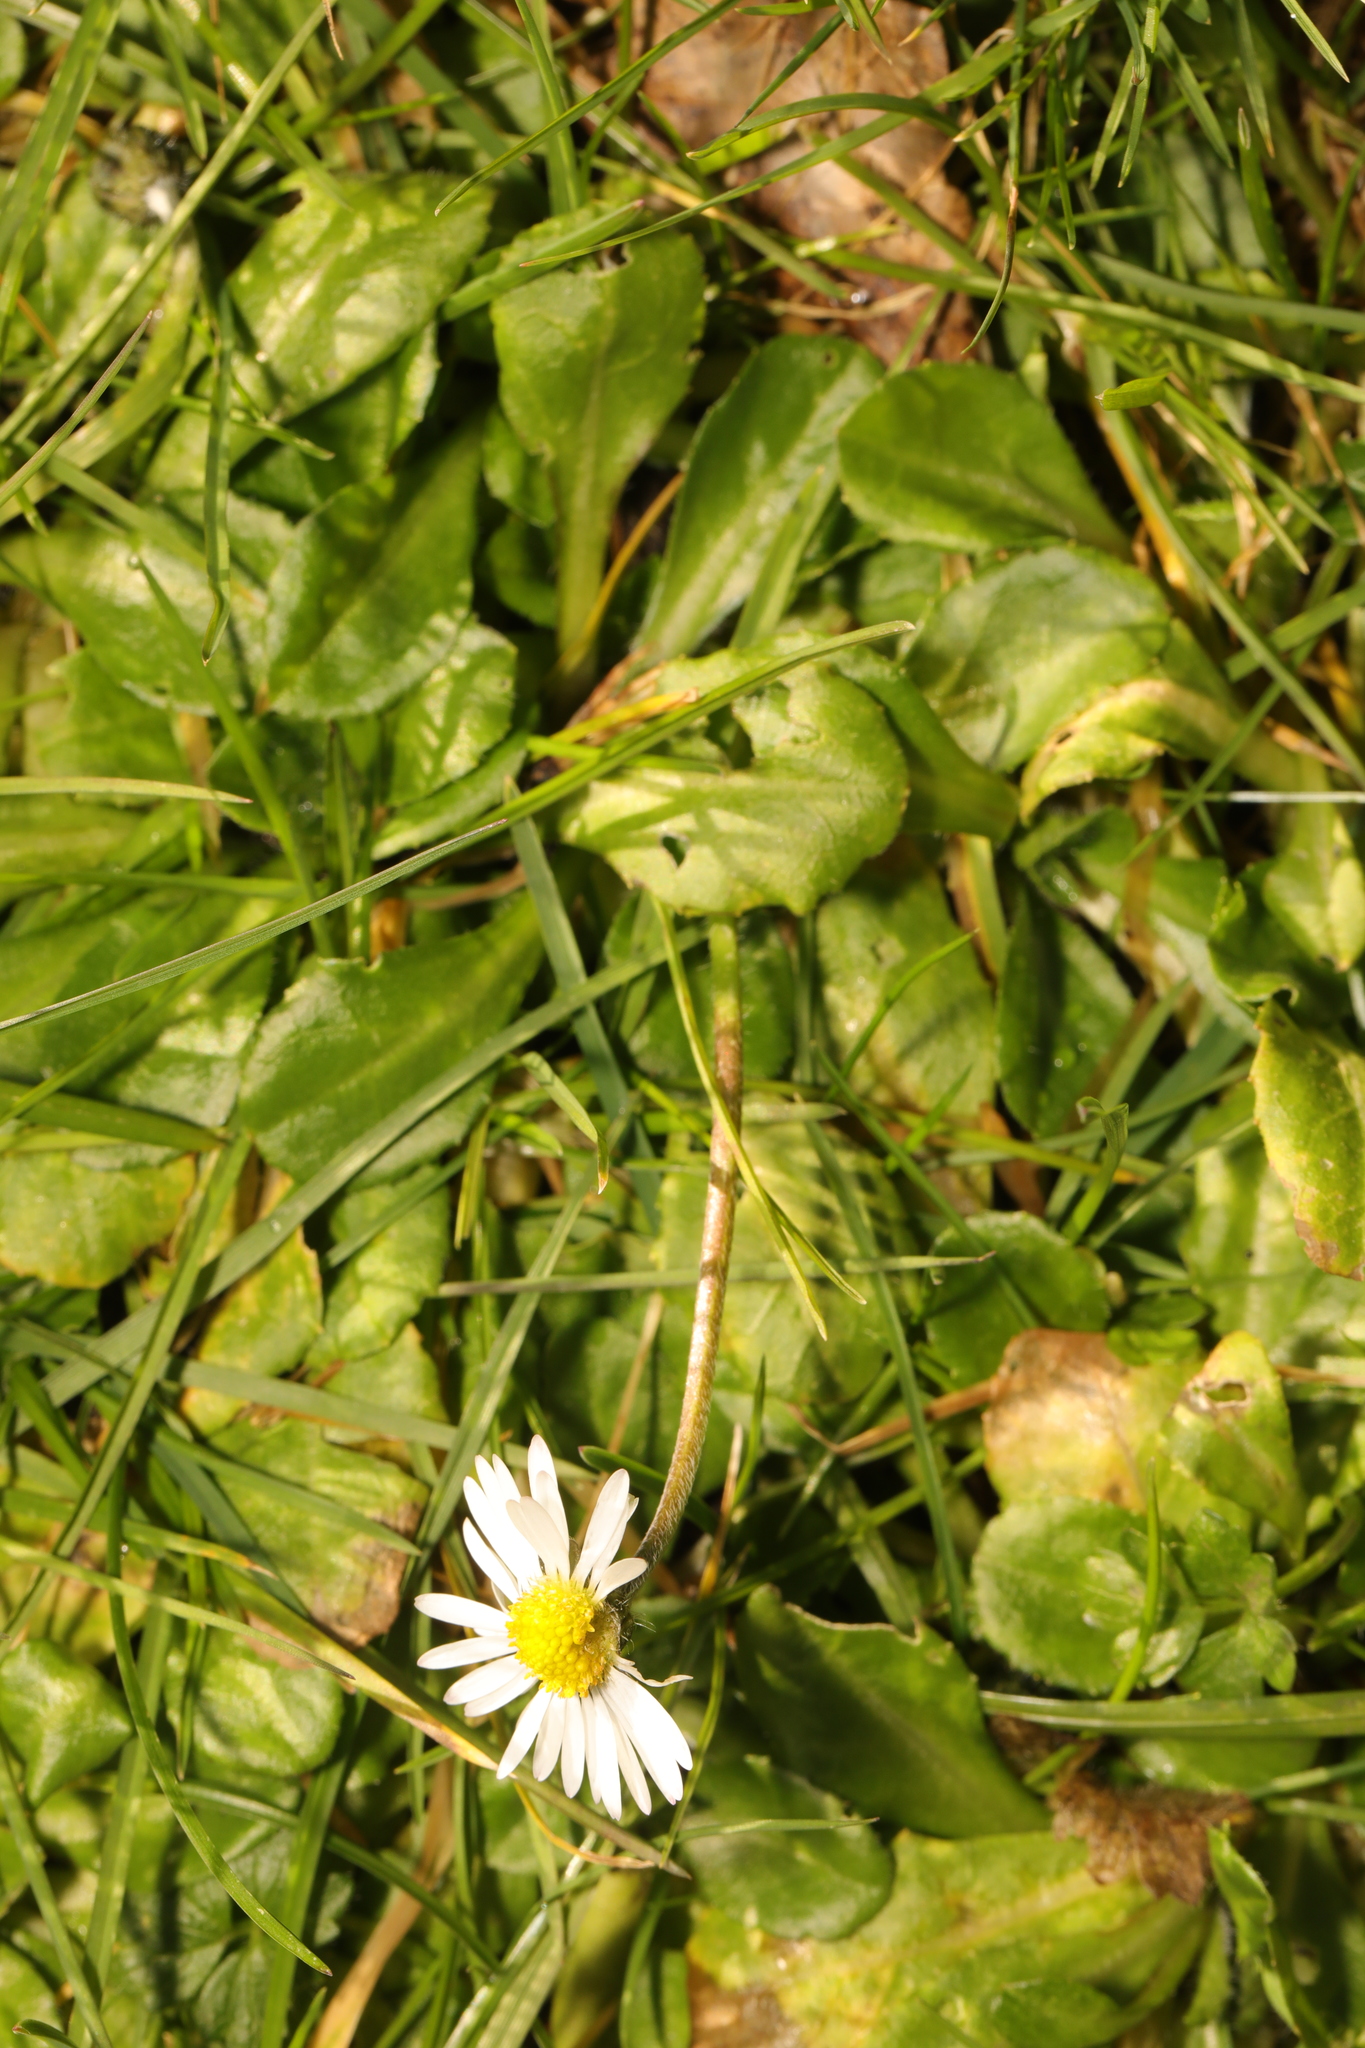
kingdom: Plantae
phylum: Tracheophyta
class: Magnoliopsida
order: Asterales
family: Asteraceae
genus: Bellis
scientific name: Bellis perennis
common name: Lawndaisy
